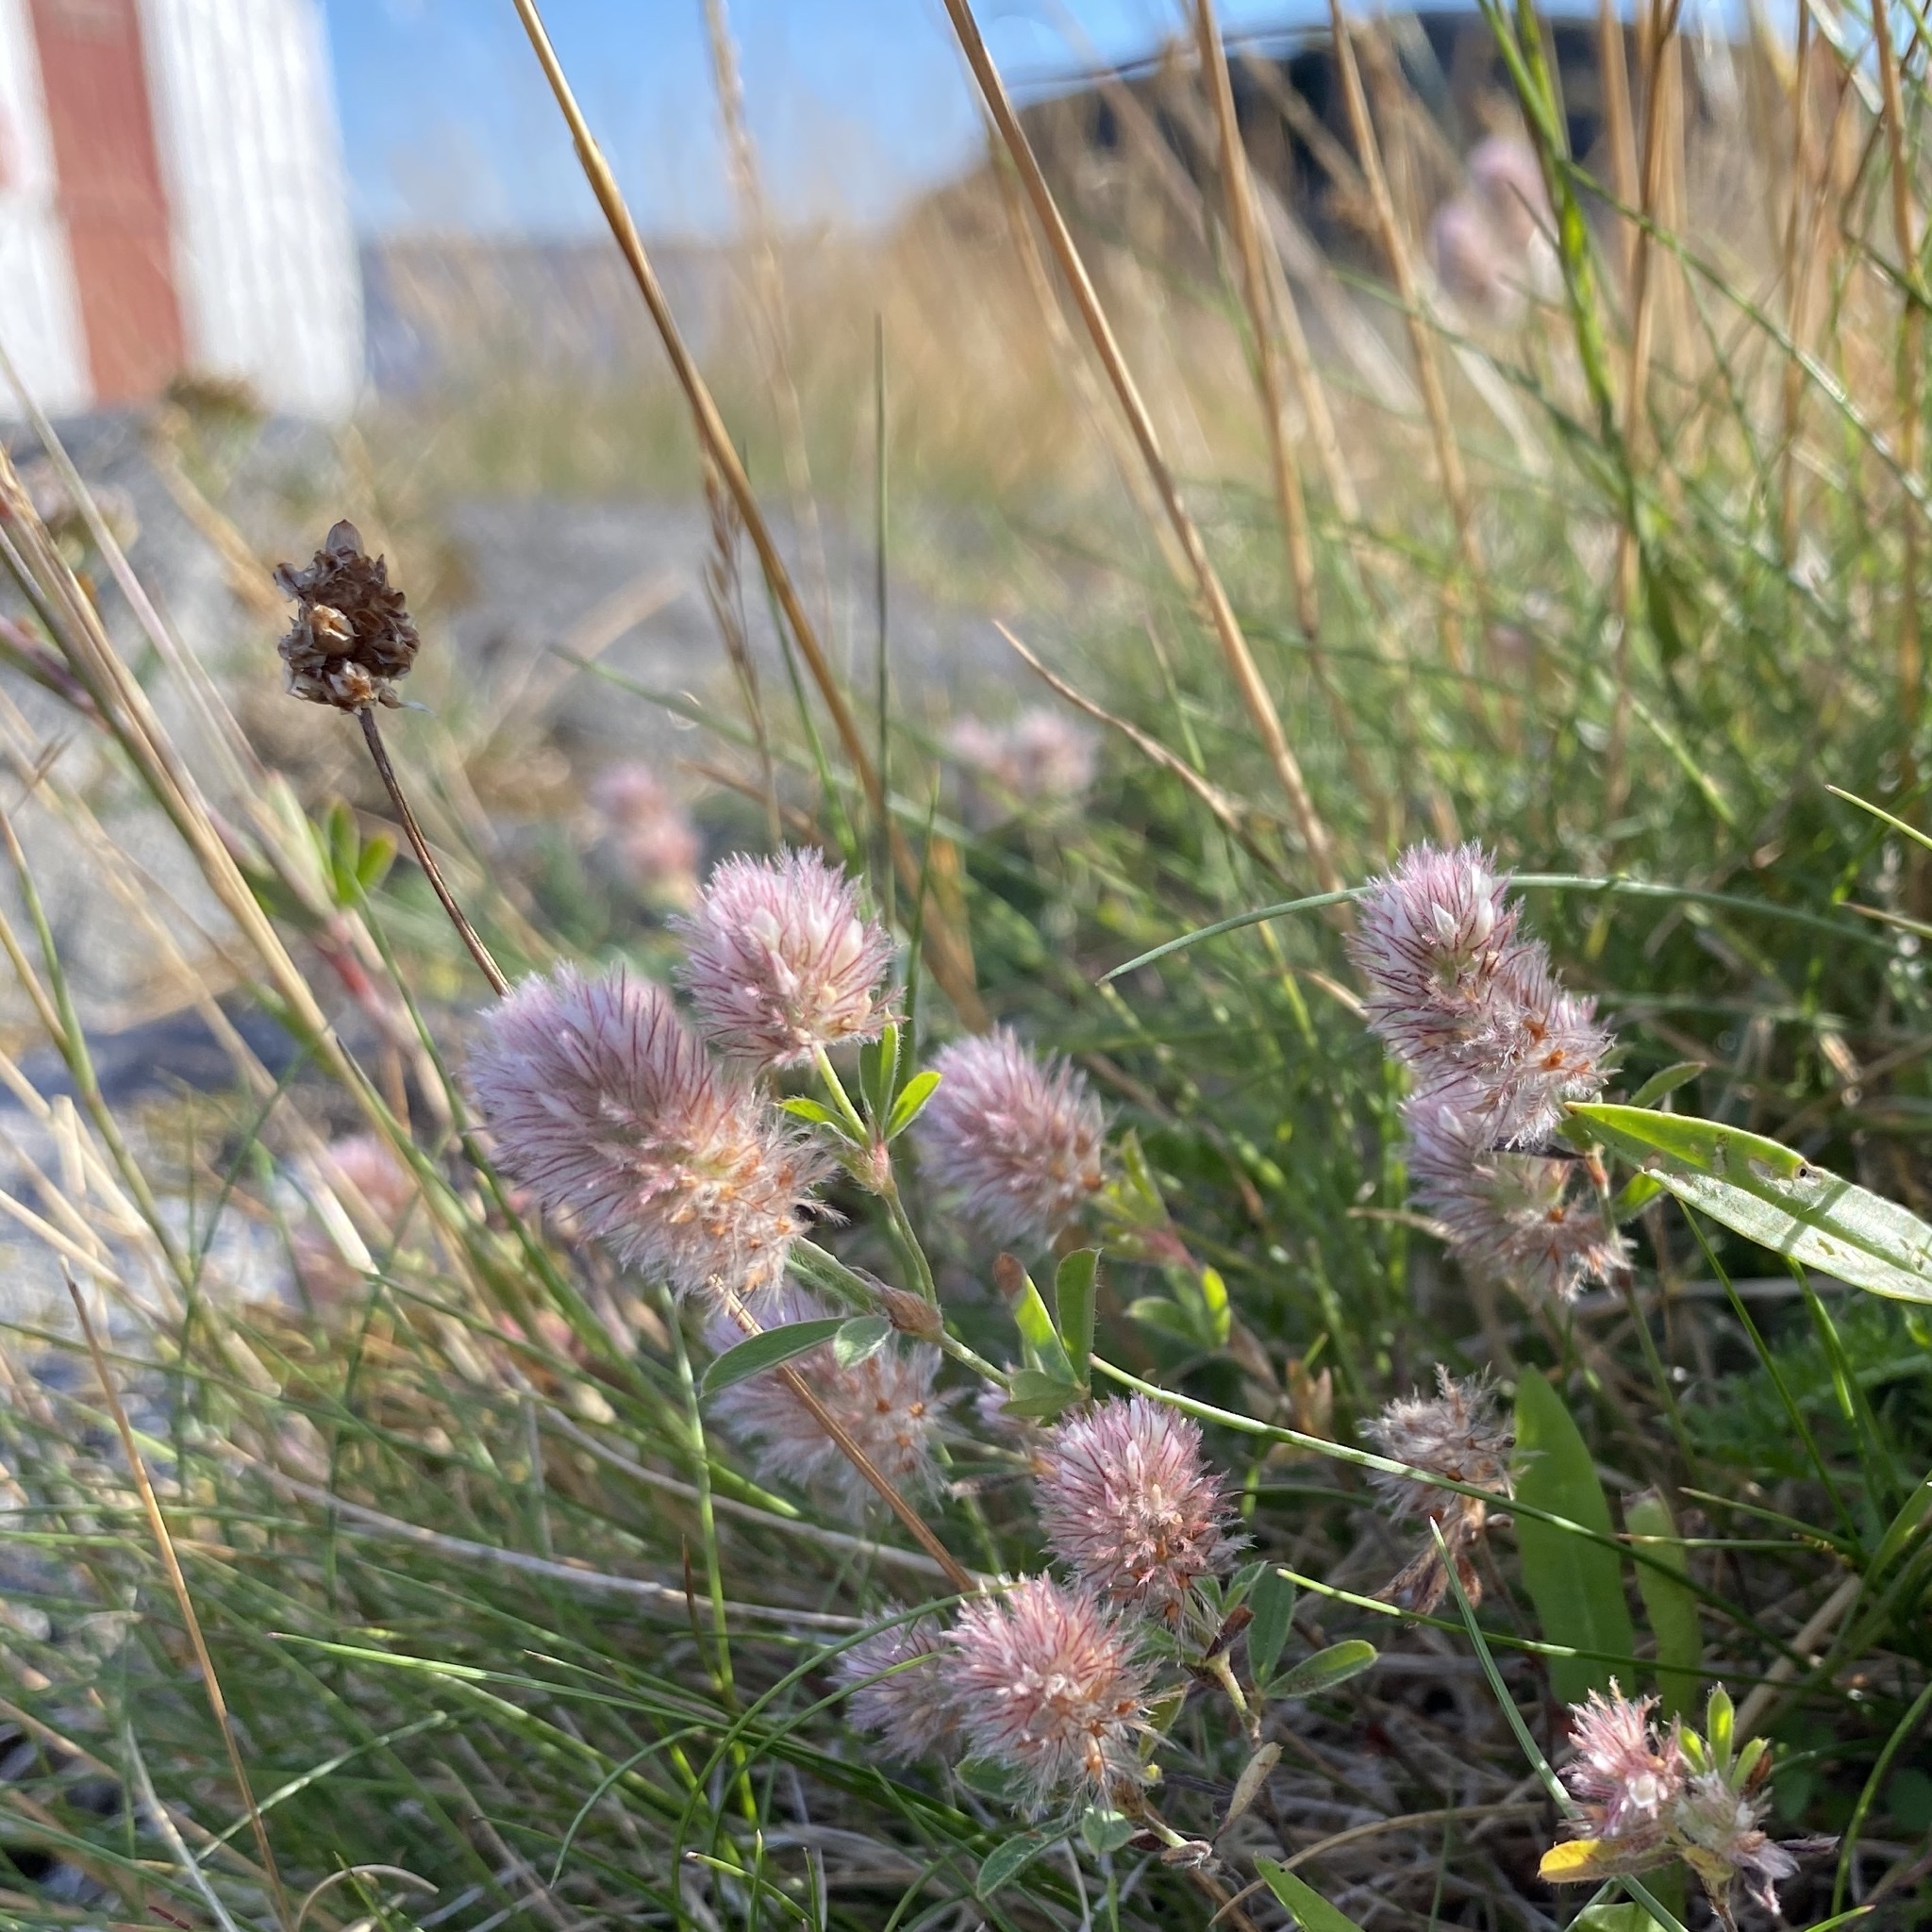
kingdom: Plantae
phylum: Tracheophyta
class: Magnoliopsida
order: Fabales
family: Fabaceae
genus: Trifolium
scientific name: Trifolium arvense
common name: Hare's-foot clover
